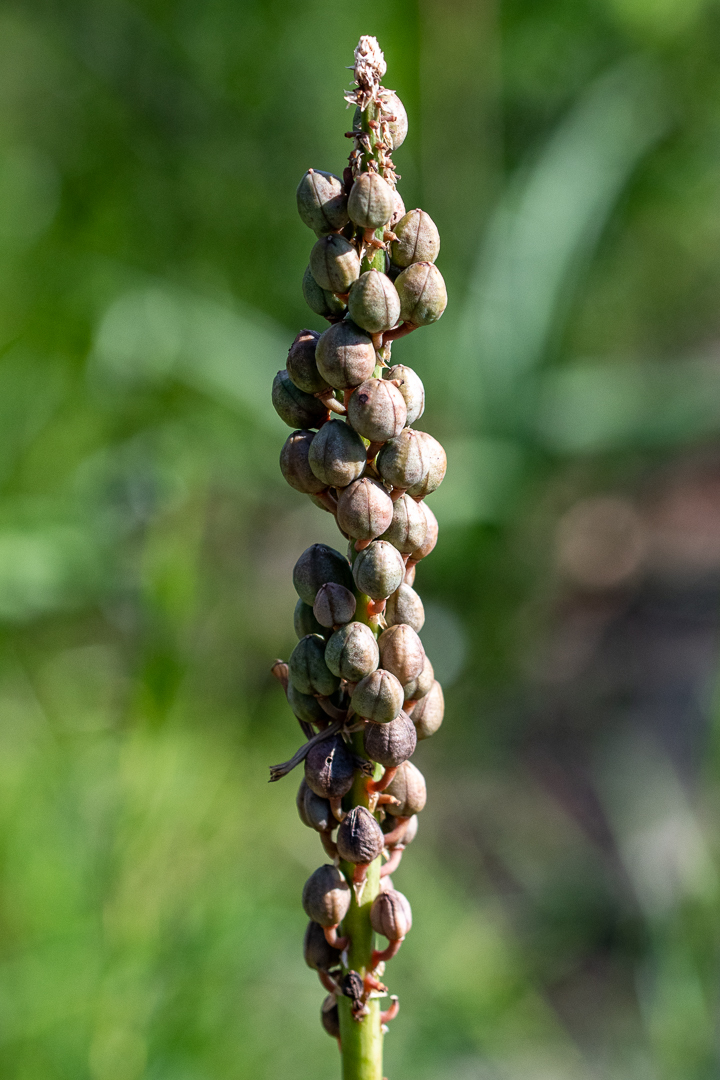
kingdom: Plantae
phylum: Tracheophyta
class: Liliopsida
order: Asparagales
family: Asphodelaceae
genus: Kniphofia
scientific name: Kniphofia uvaria
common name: Red-hot-poker
